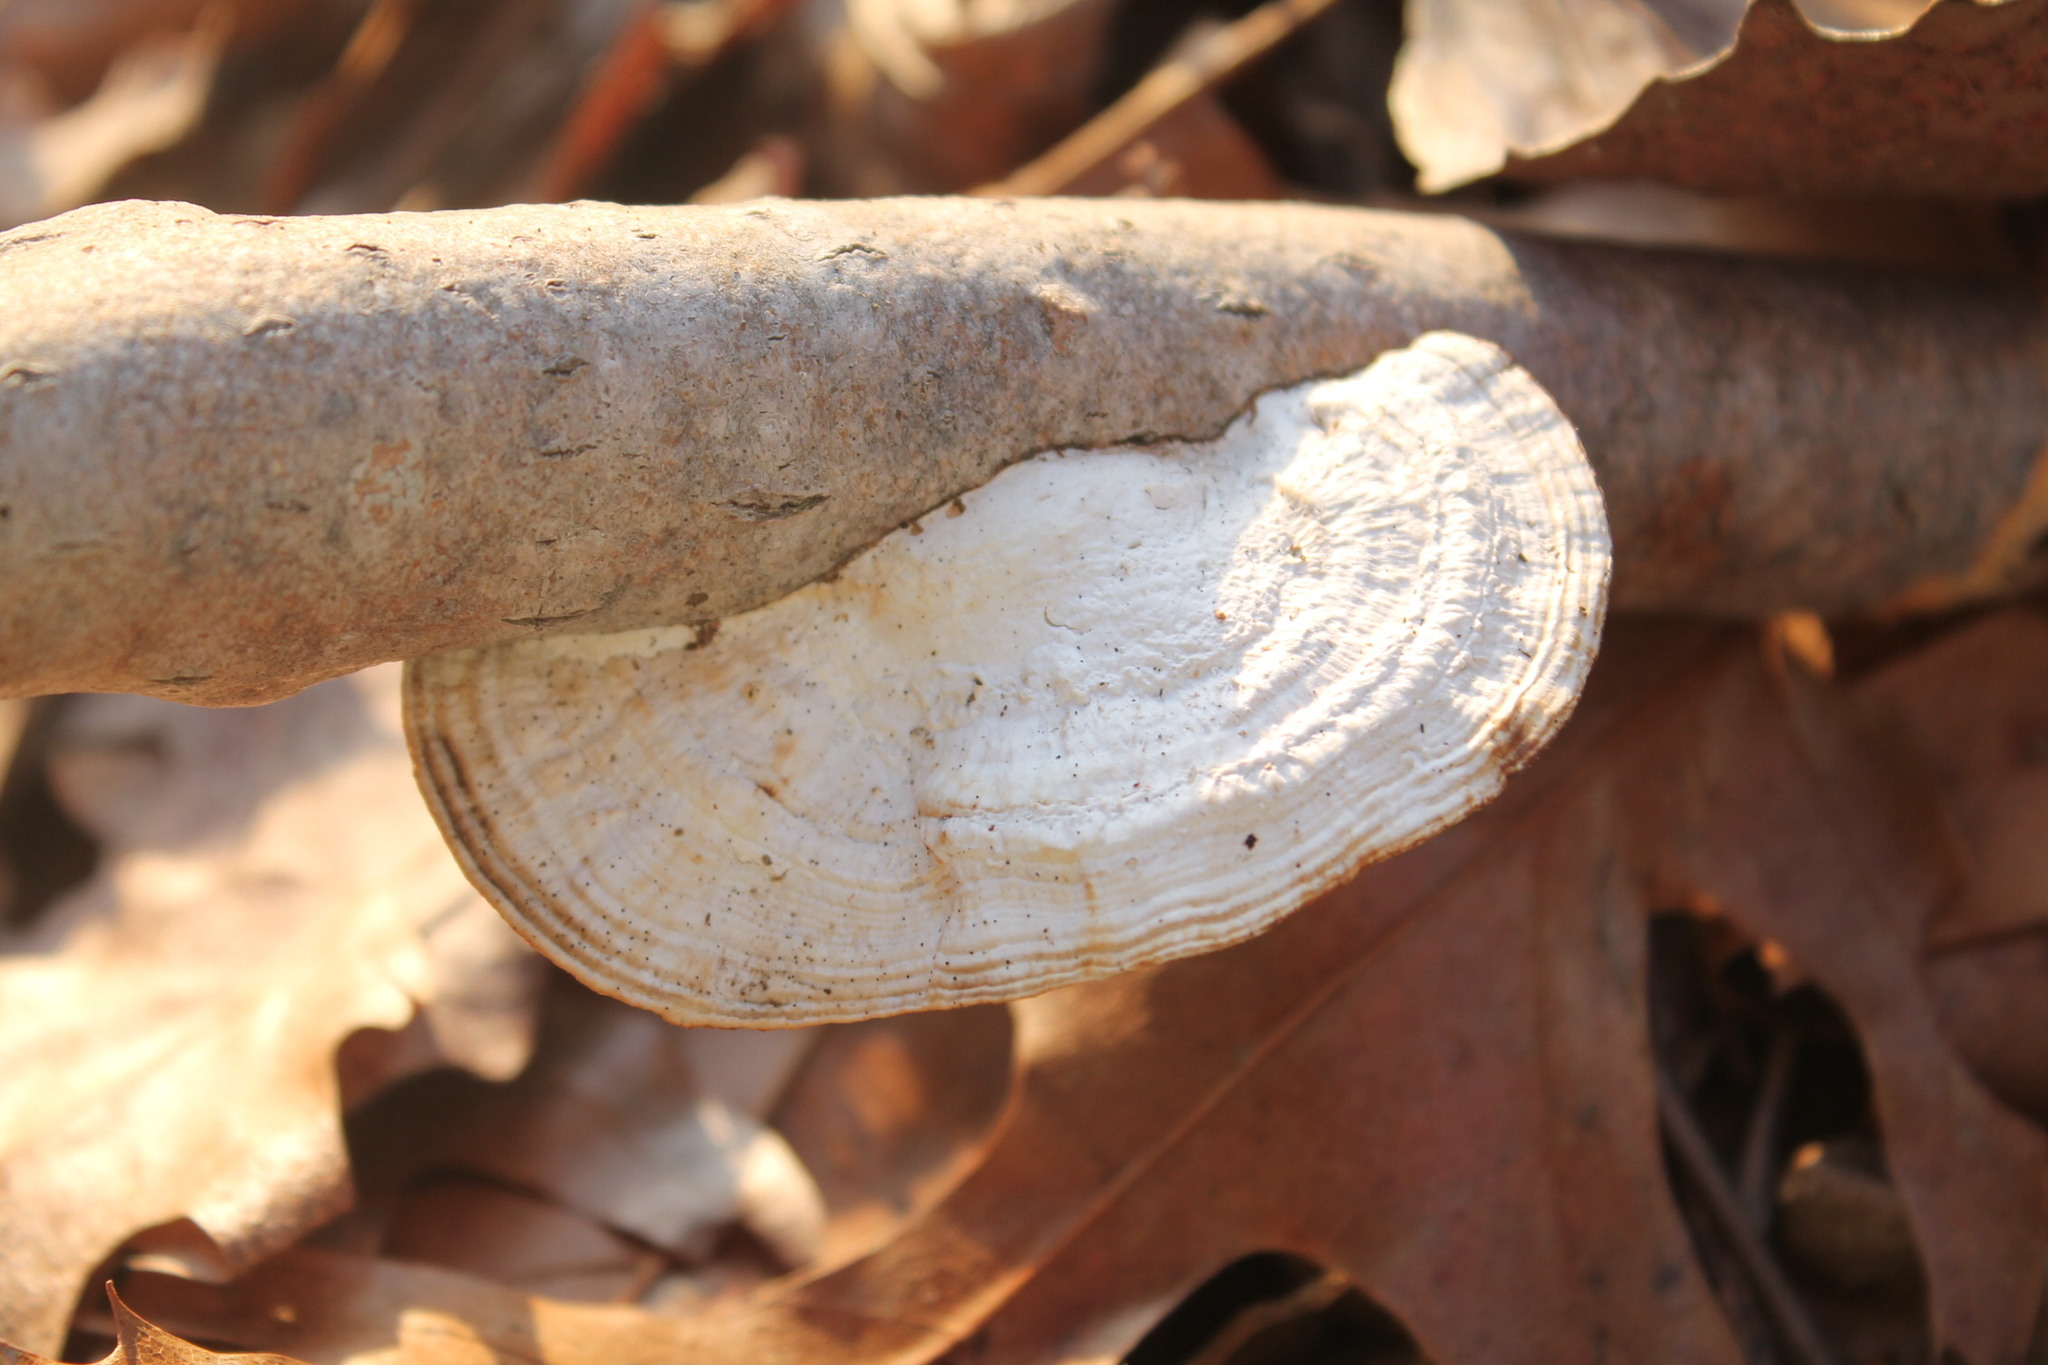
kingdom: Fungi
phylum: Basidiomycota
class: Agaricomycetes
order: Polyporales
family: Polyporaceae
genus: Daedaleopsis
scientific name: Daedaleopsis confragosa
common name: Blushing bracket
